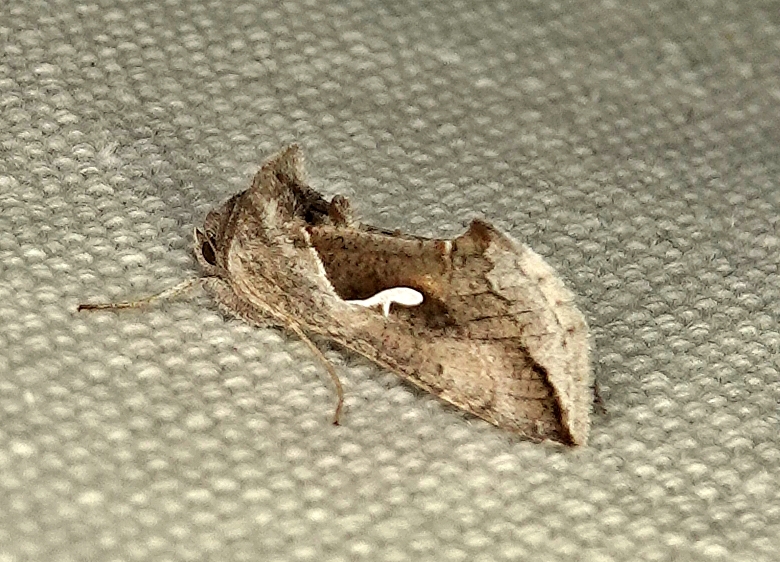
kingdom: Animalia
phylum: Arthropoda
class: Insecta
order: Lepidoptera
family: Noctuidae
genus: Anagrapha
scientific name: Anagrapha falcifera
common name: Celery looper
